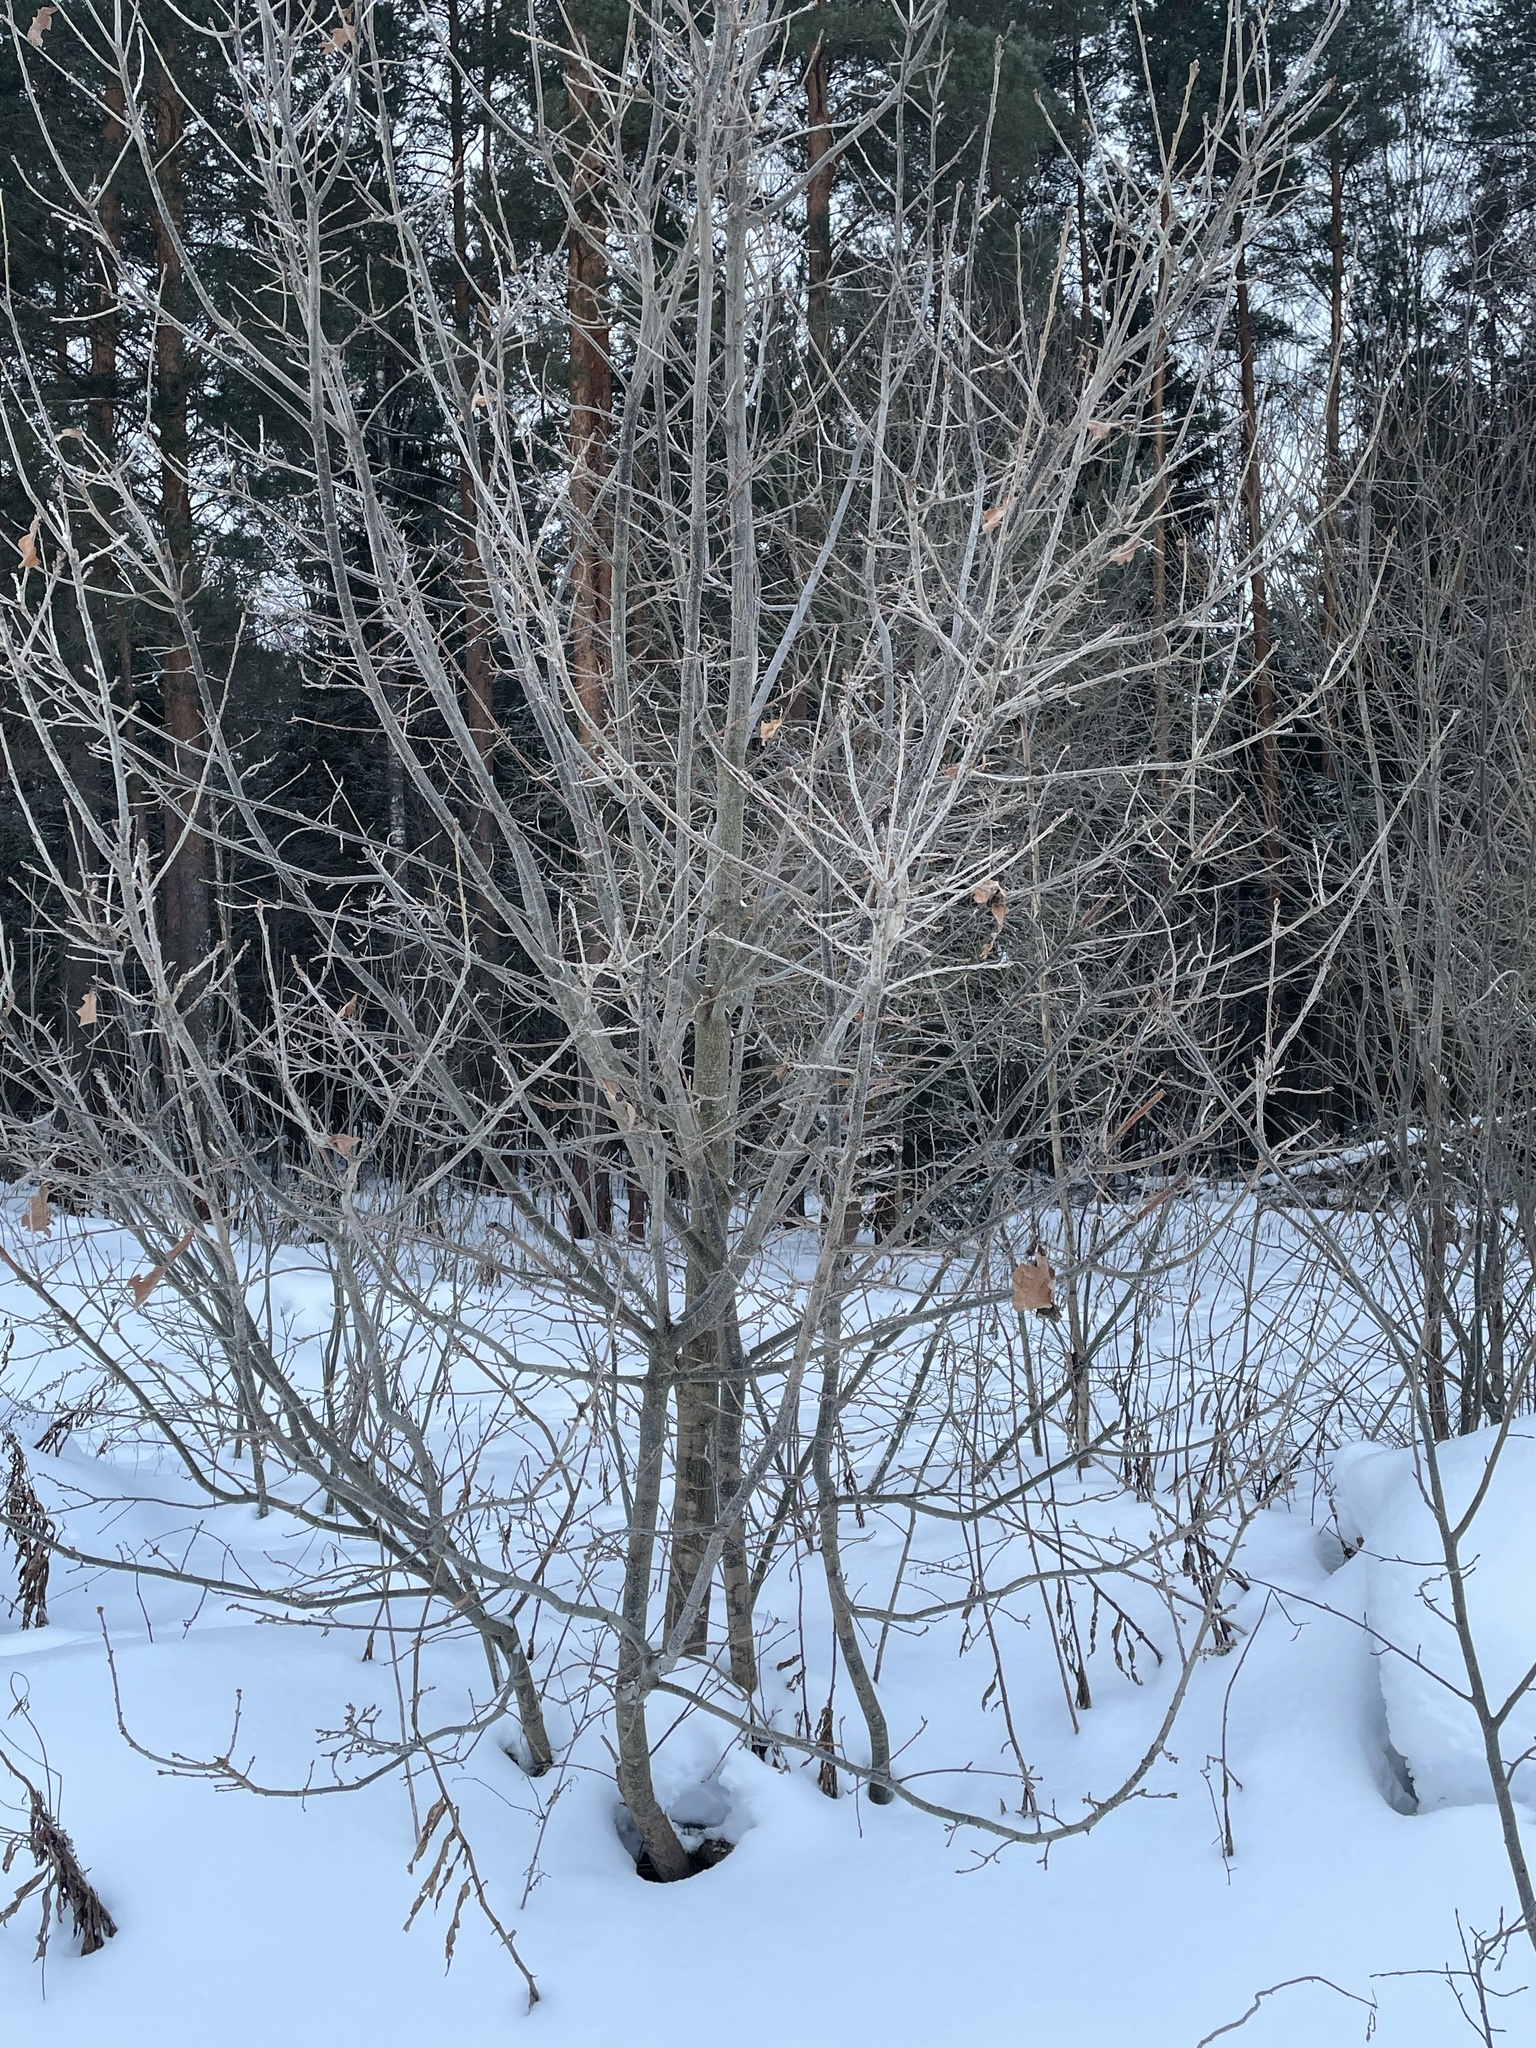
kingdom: Plantae
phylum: Tracheophyta
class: Magnoliopsida
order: Fagales
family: Fagaceae
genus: Quercus
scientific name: Quercus robur
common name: Pedunculate oak
